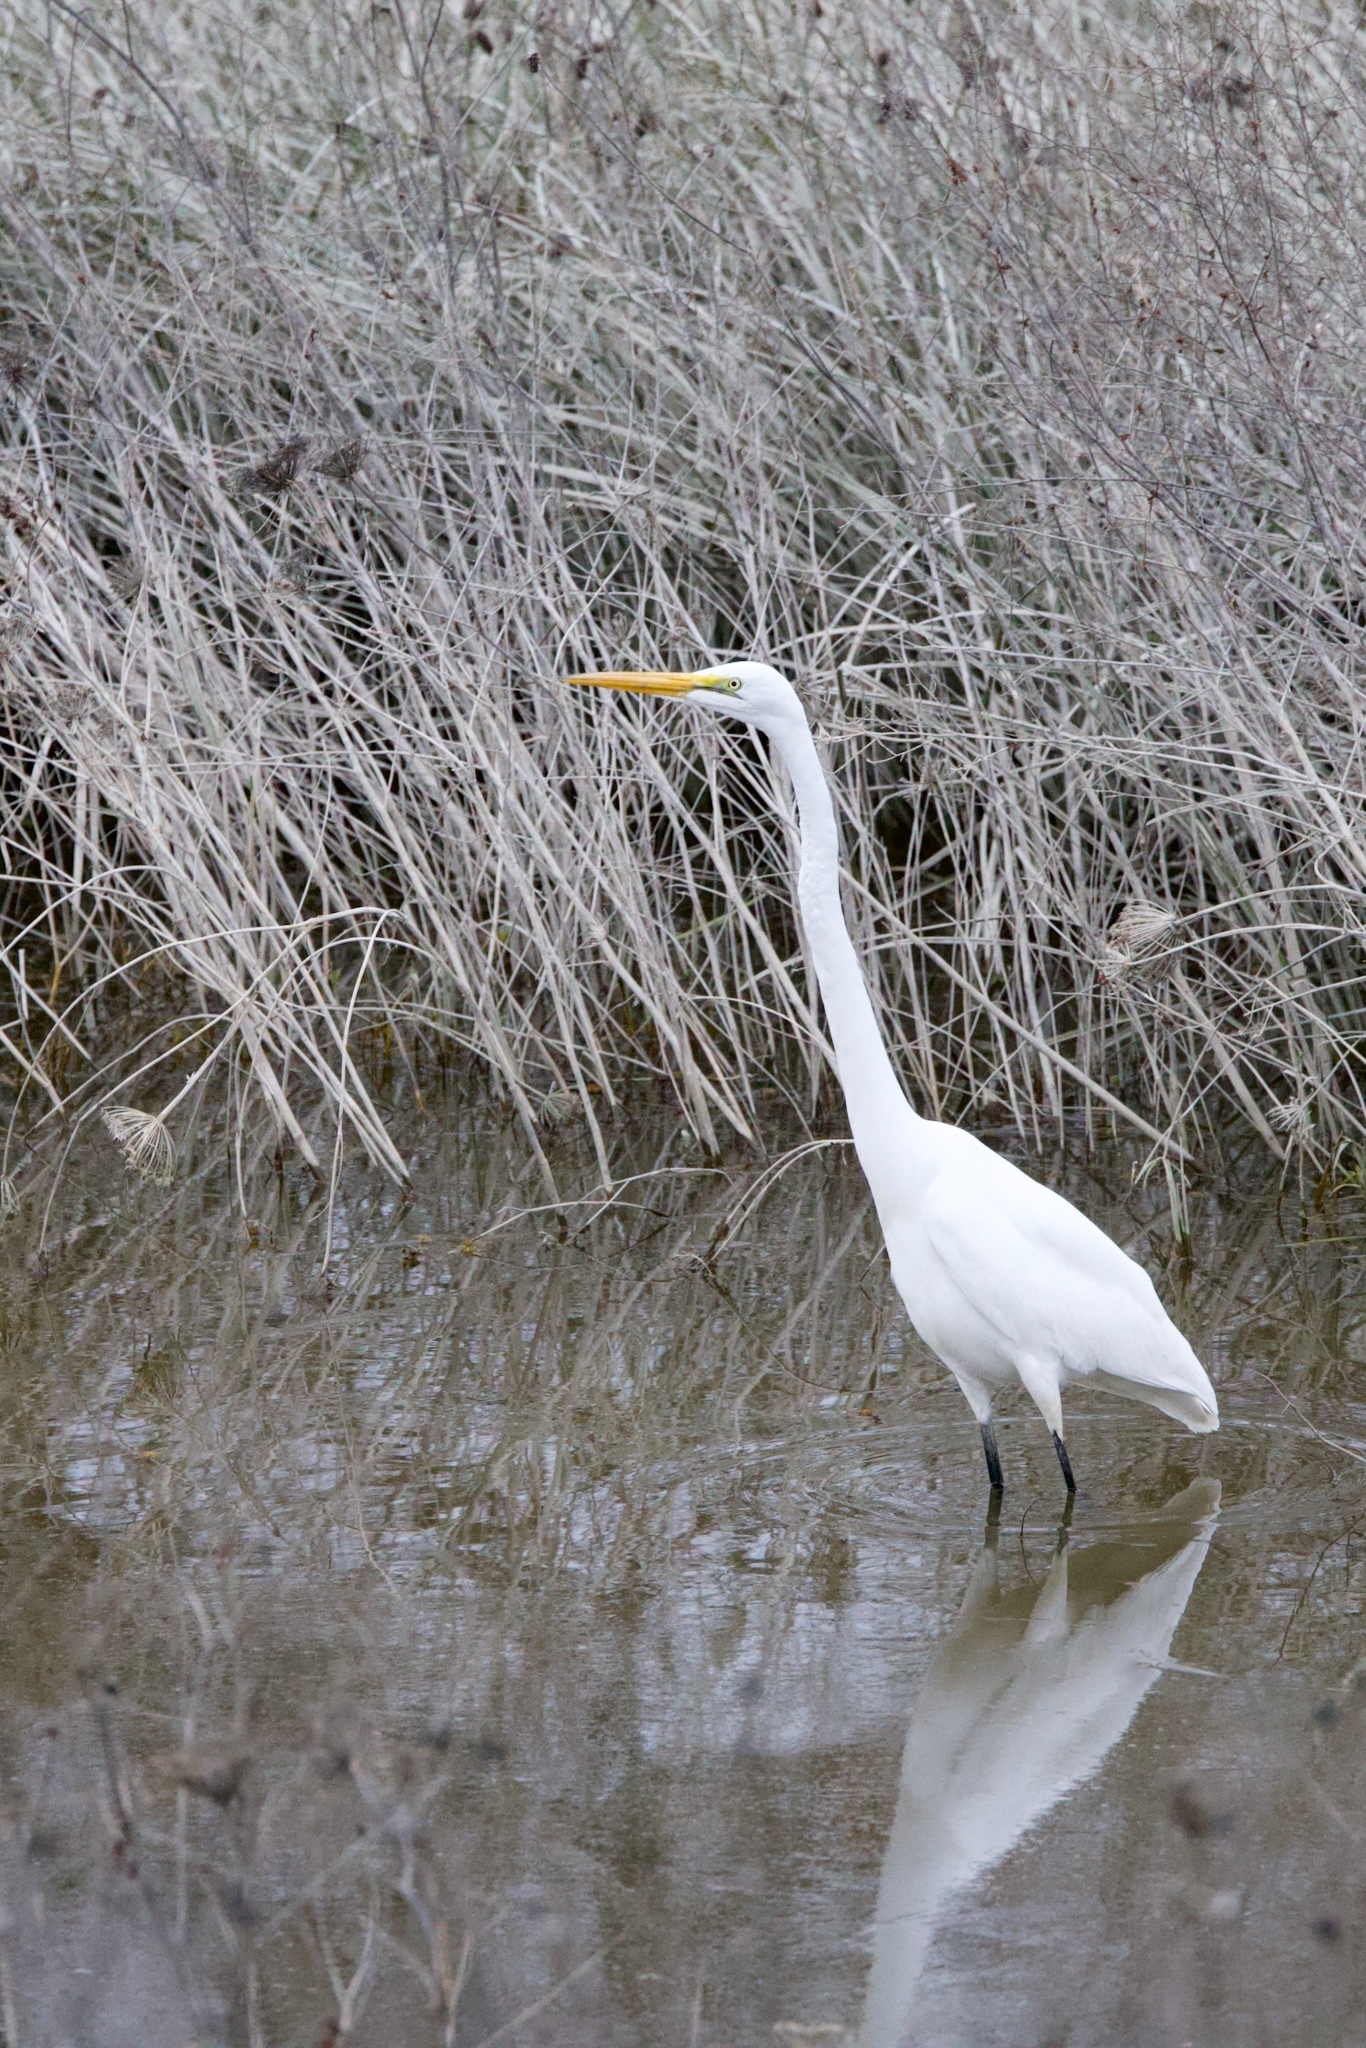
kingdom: Animalia
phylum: Chordata
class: Aves
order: Pelecaniformes
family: Ardeidae
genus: Ardea
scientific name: Ardea alba
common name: Great egret
